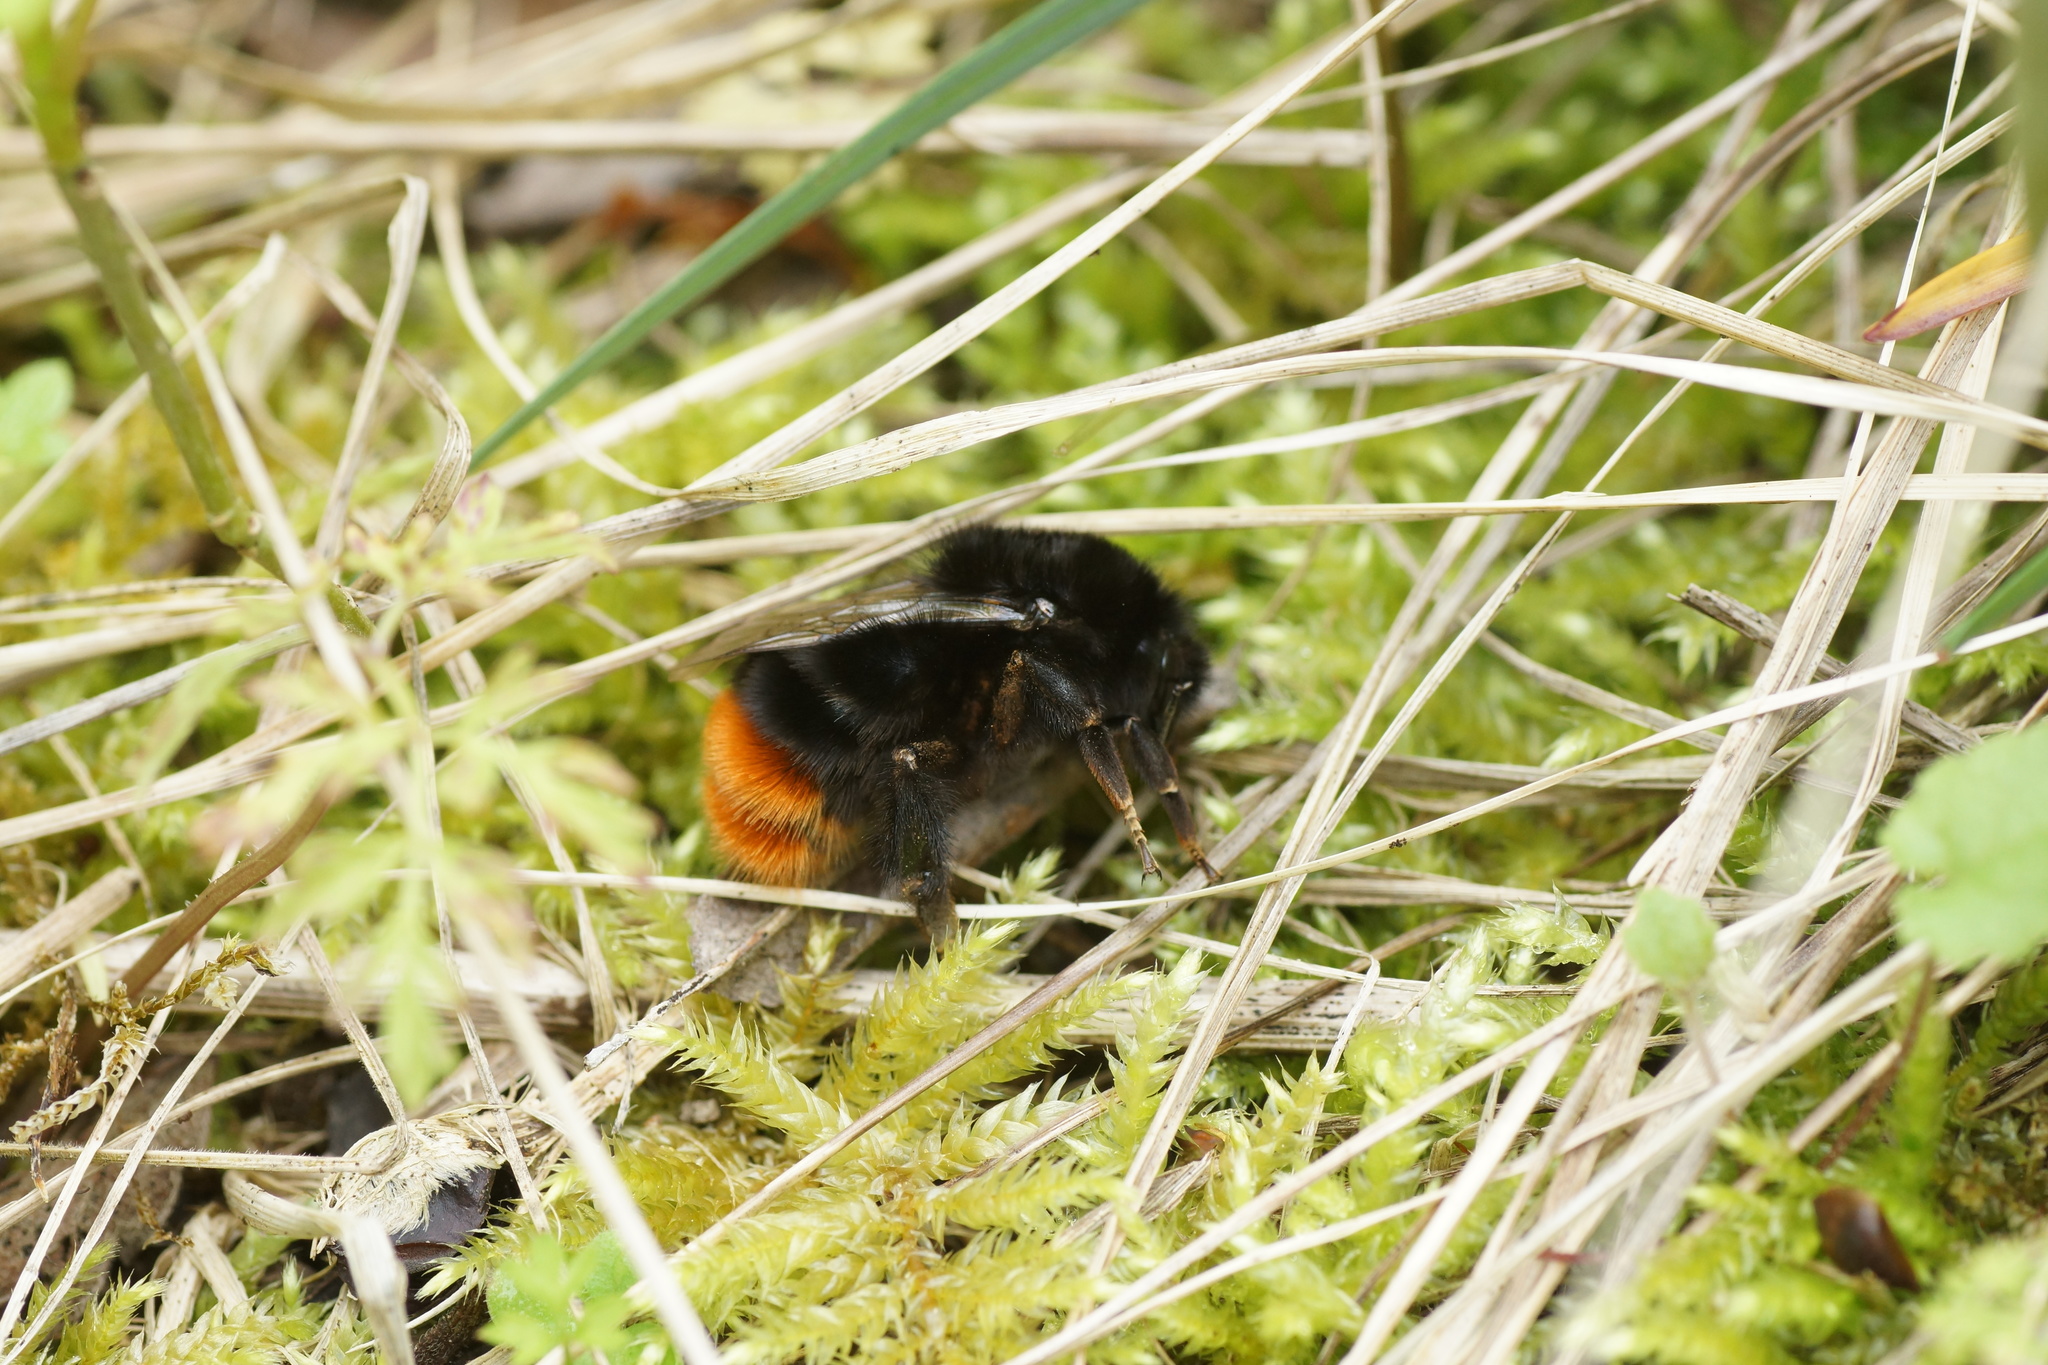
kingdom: Animalia
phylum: Arthropoda
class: Insecta
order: Hymenoptera
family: Apidae
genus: Bombus
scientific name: Bombus lapidarius
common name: Large red-tailed humble-bee
